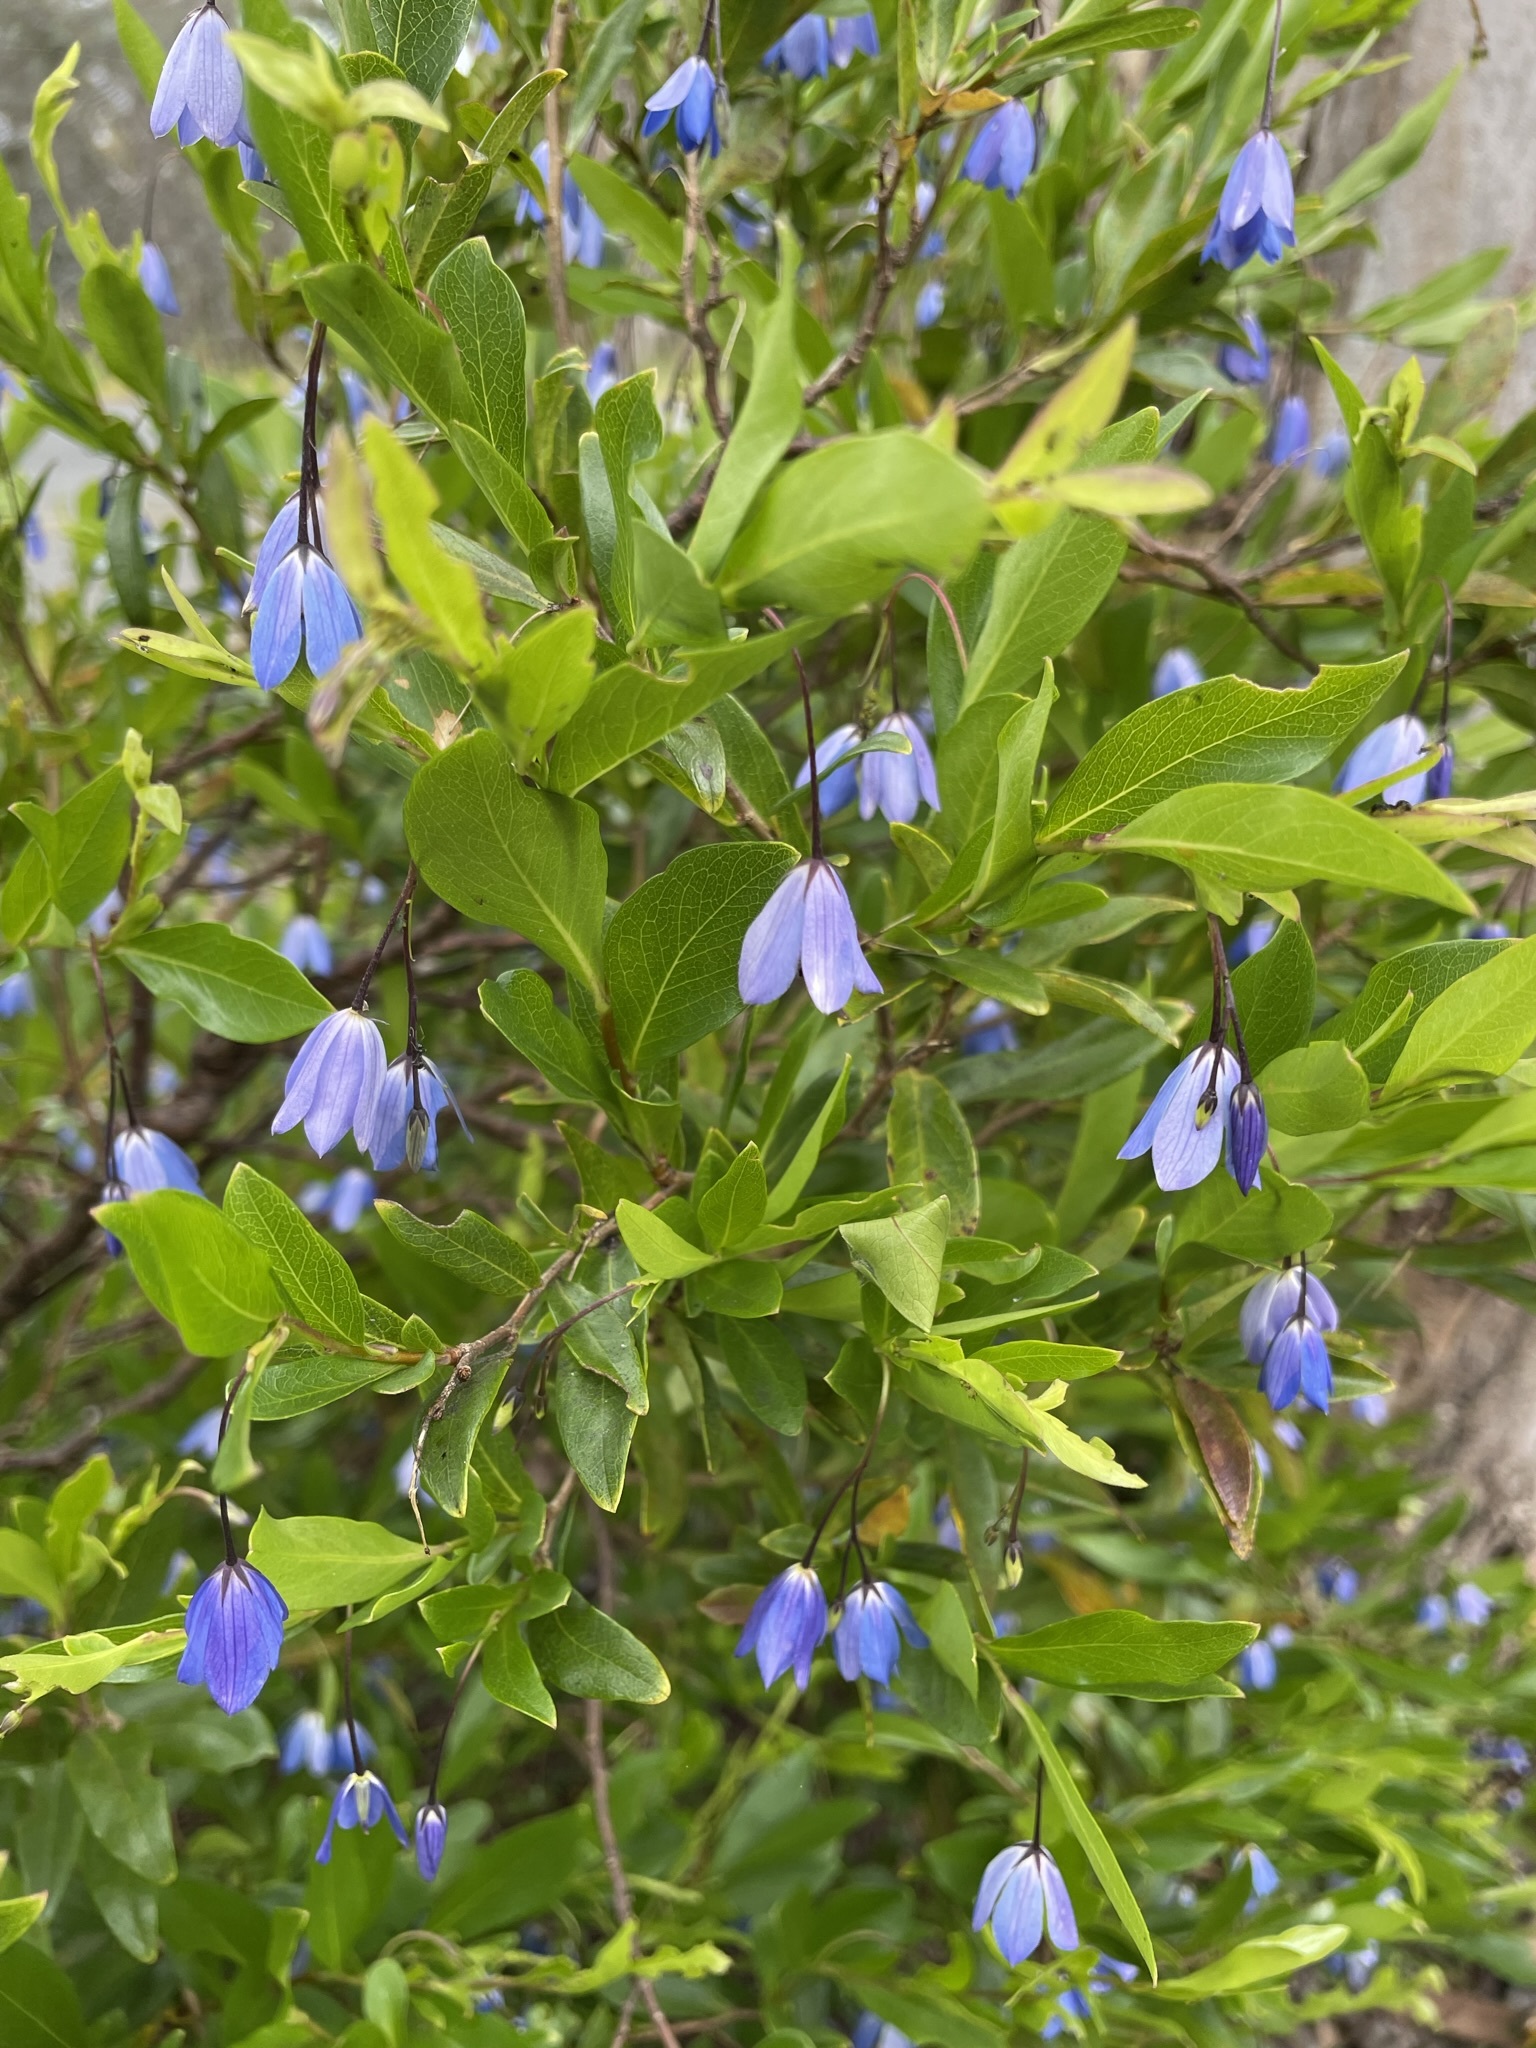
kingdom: Plantae
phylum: Tracheophyta
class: Magnoliopsida
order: Apiales
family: Pittosporaceae
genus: Billardiera
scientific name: Billardiera heterophylla
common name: Bluebell creeper
